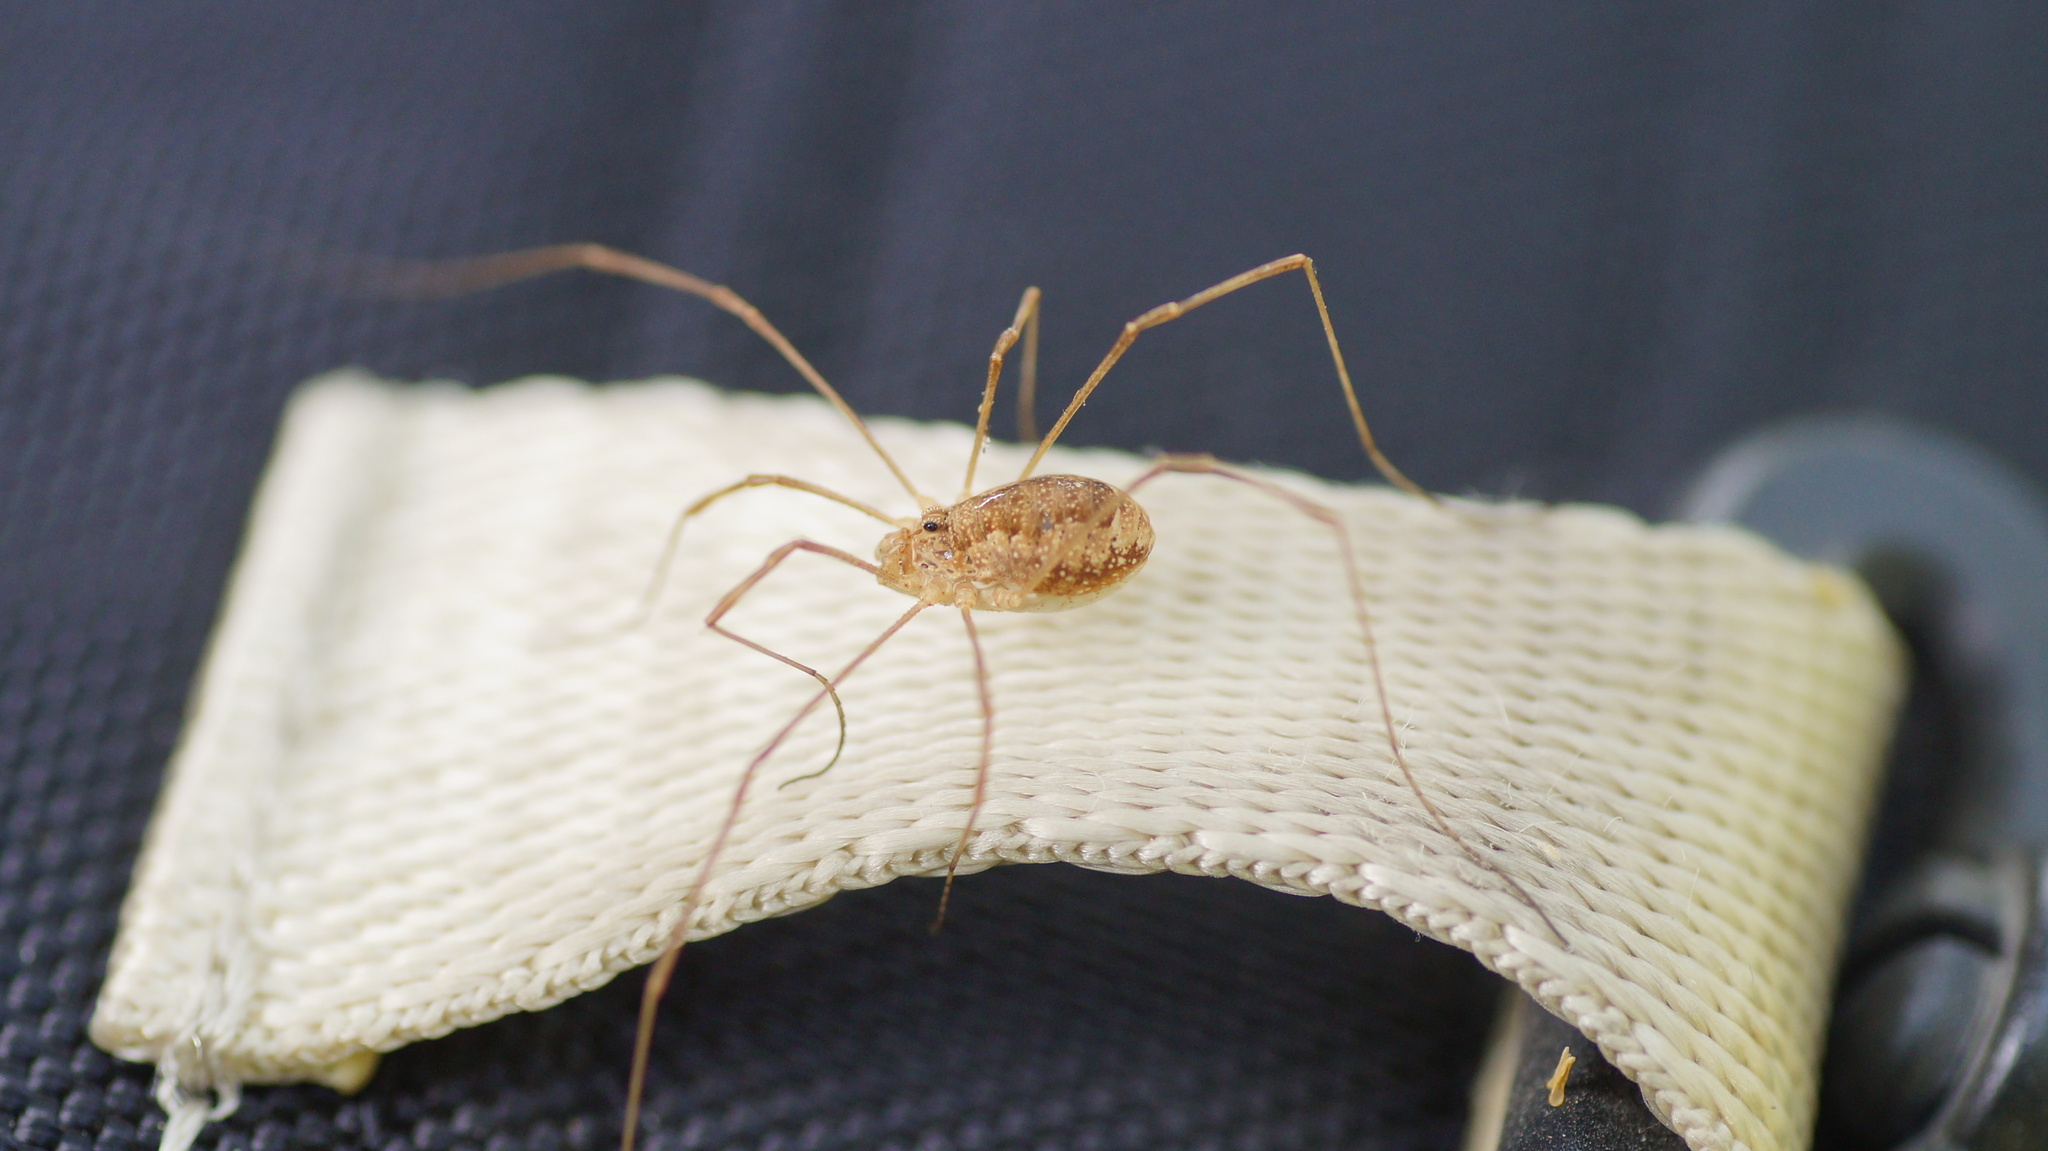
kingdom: Animalia
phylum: Arthropoda
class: Arachnida
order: Opiliones
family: Phalangiidae
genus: Rilaena
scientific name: Rilaena triangularis
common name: Spring harvestman
